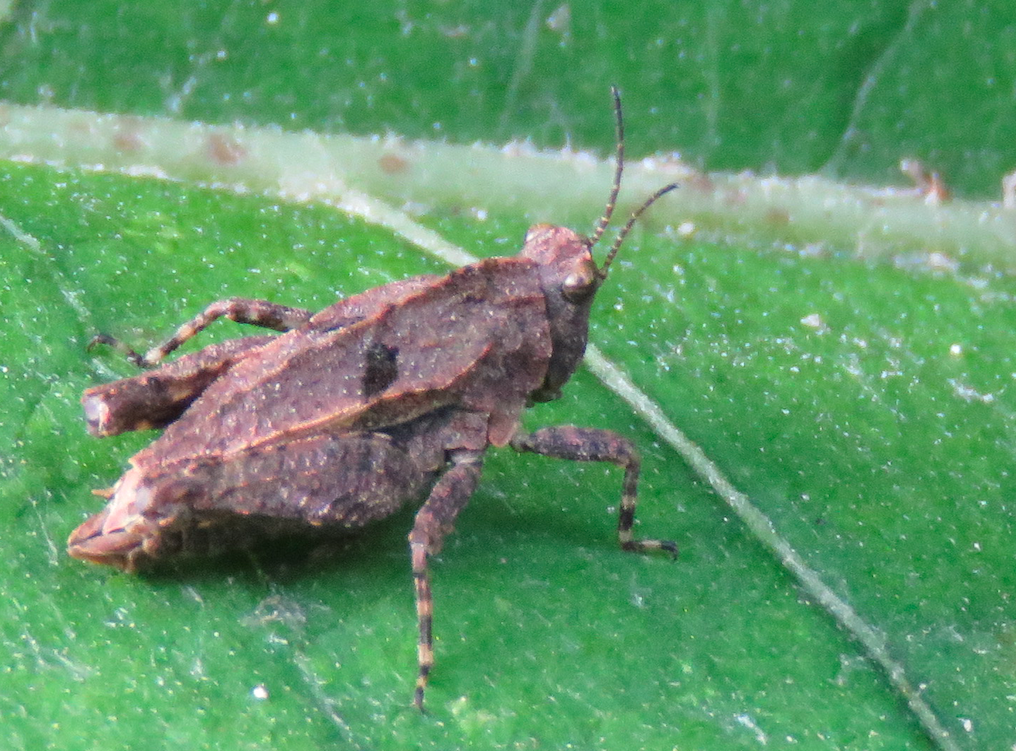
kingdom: Animalia
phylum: Arthropoda
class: Insecta
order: Orthoptera
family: Tetrigidae
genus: Tetrix
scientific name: Tetrix transsylvanica
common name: Transsylvanian wingless groundhopper
